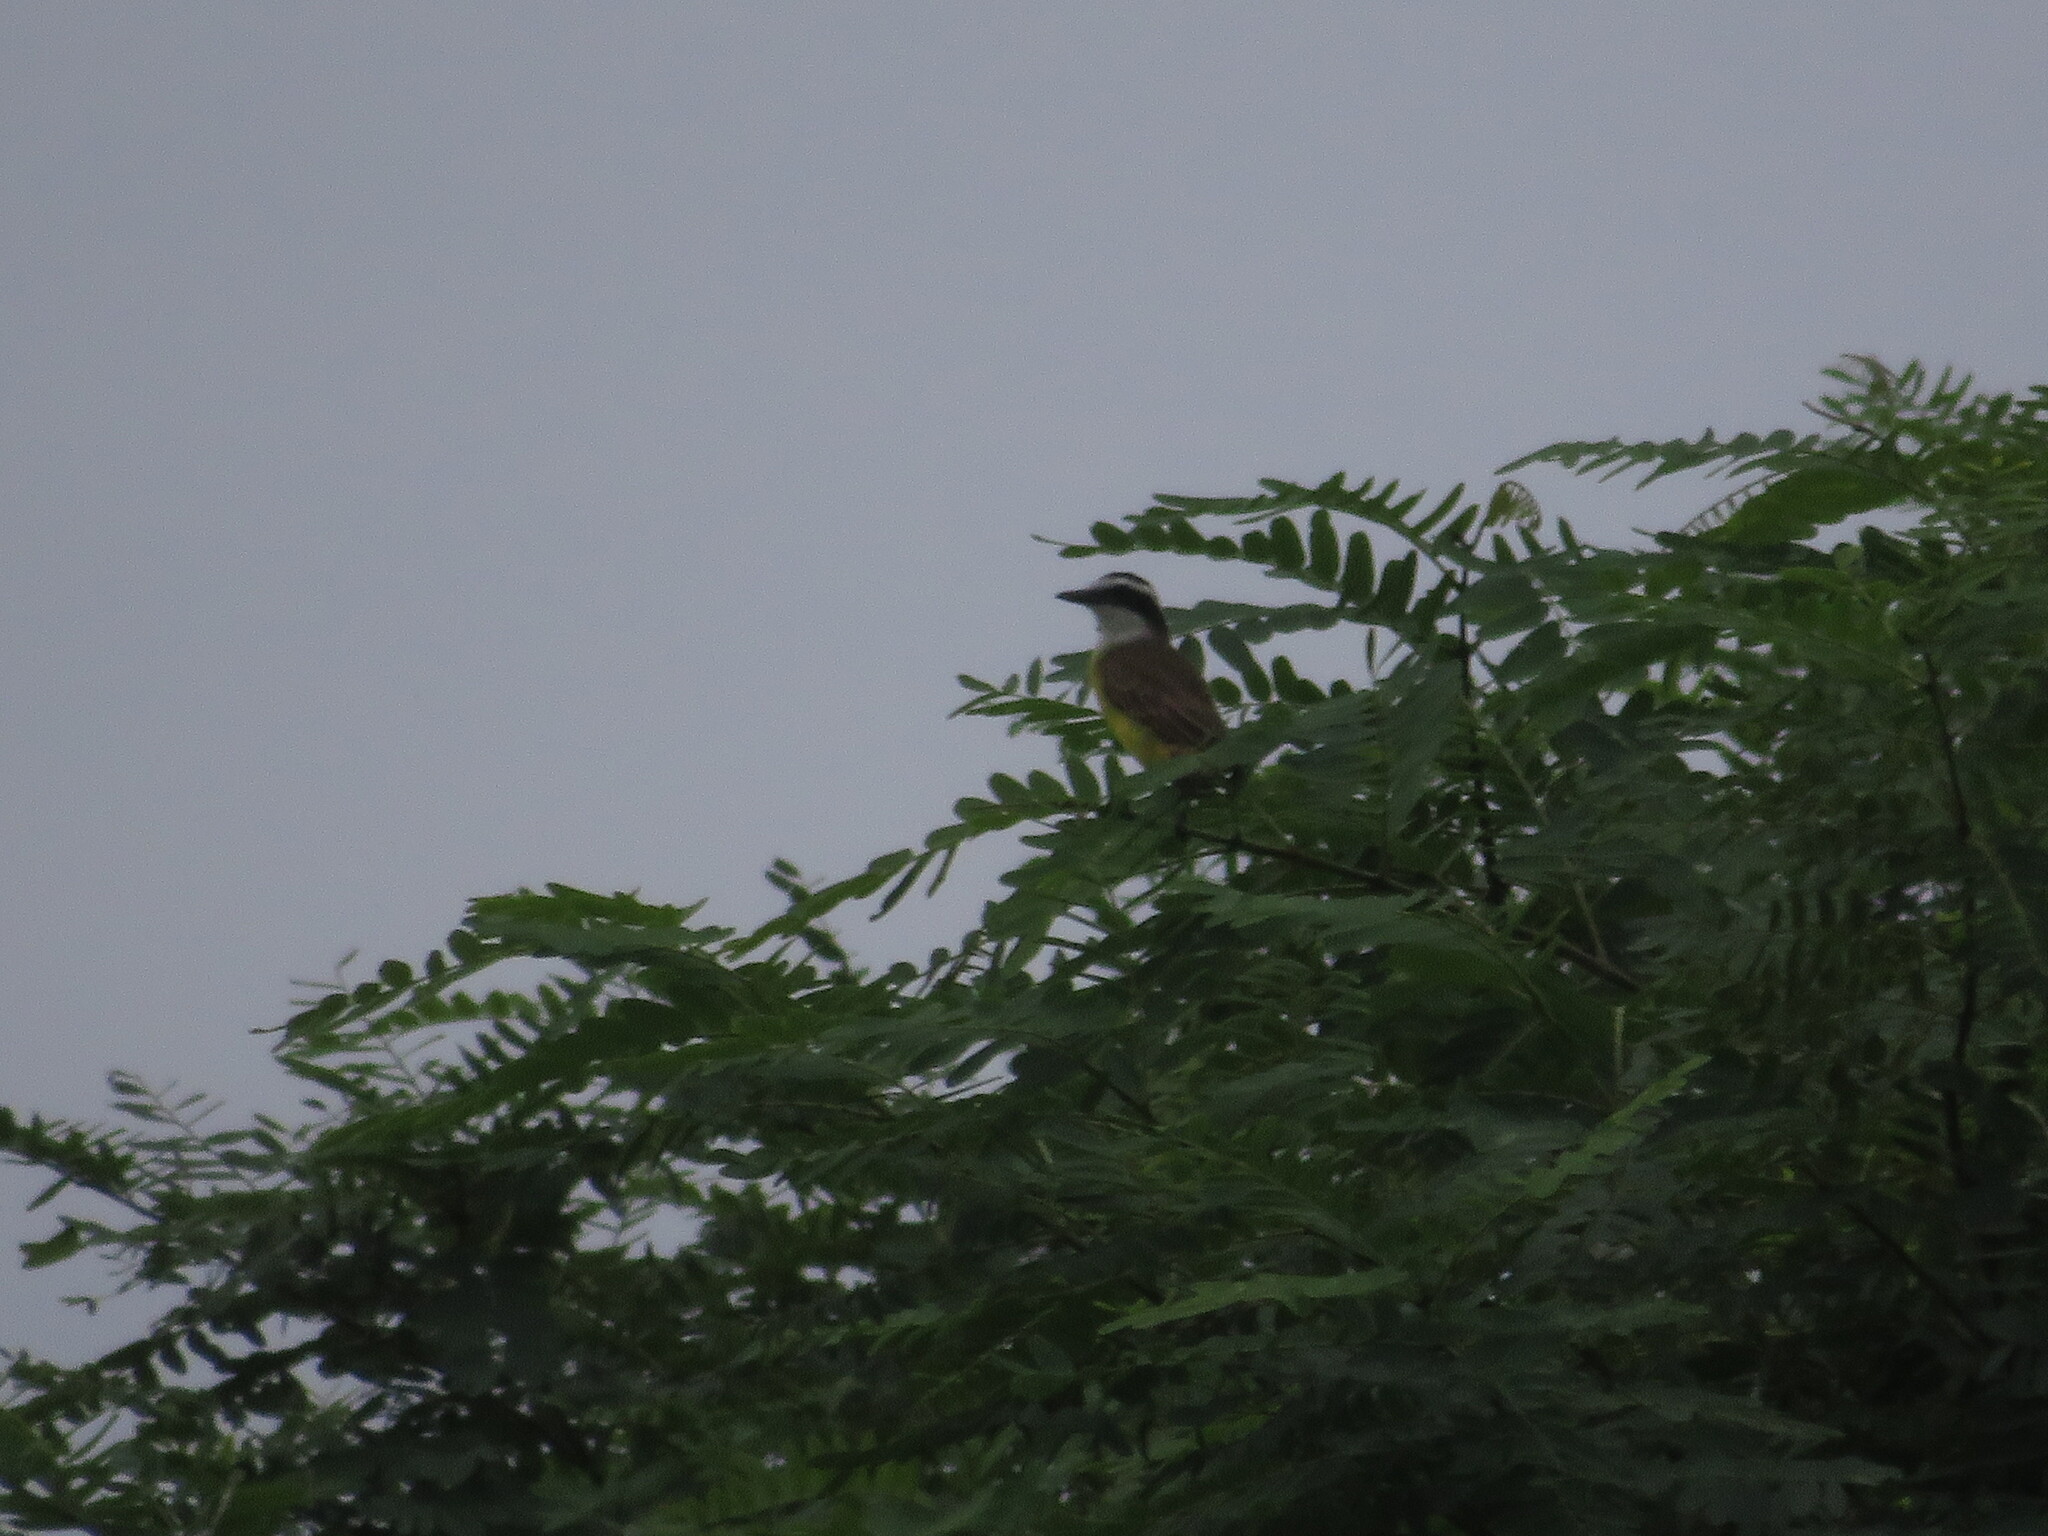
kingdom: Animalia
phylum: Chordata
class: Aves
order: Passeriformes
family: Tyrannidae
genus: Pitangus
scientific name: Pitangus sulphuratus
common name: Great kiskadee
